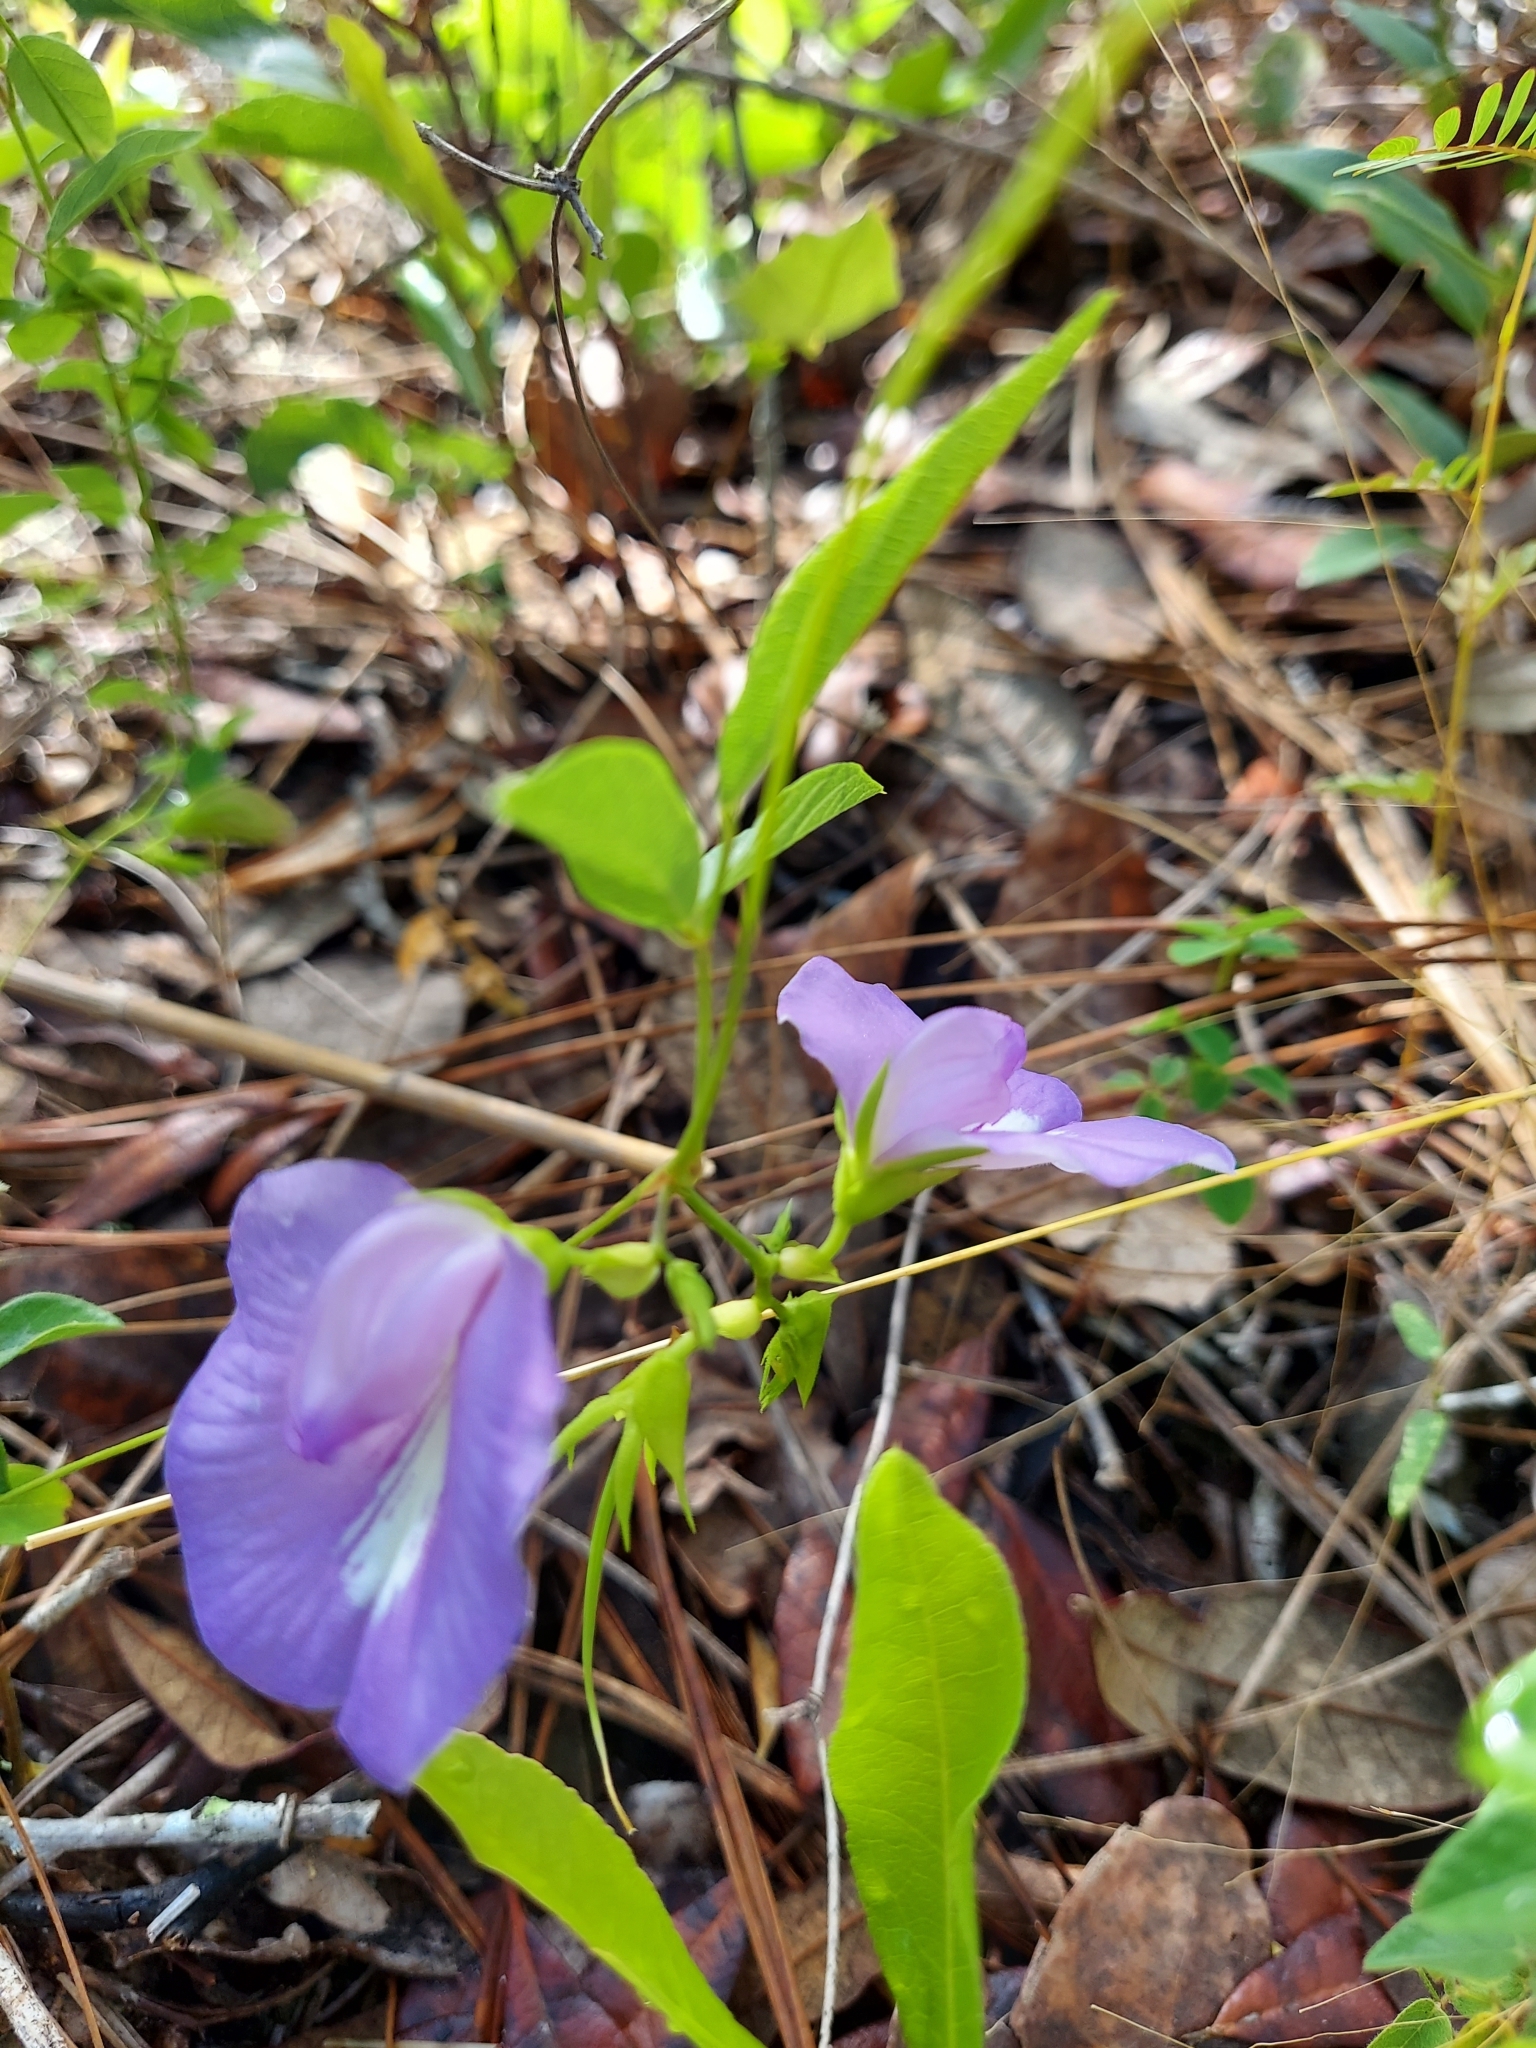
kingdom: Plantae
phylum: Tracheophyta
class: Magnoliopsida
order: Fabales
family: Fabaceae
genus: Centrosema
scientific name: Centrosema virginianum
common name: Butterfly-pea
